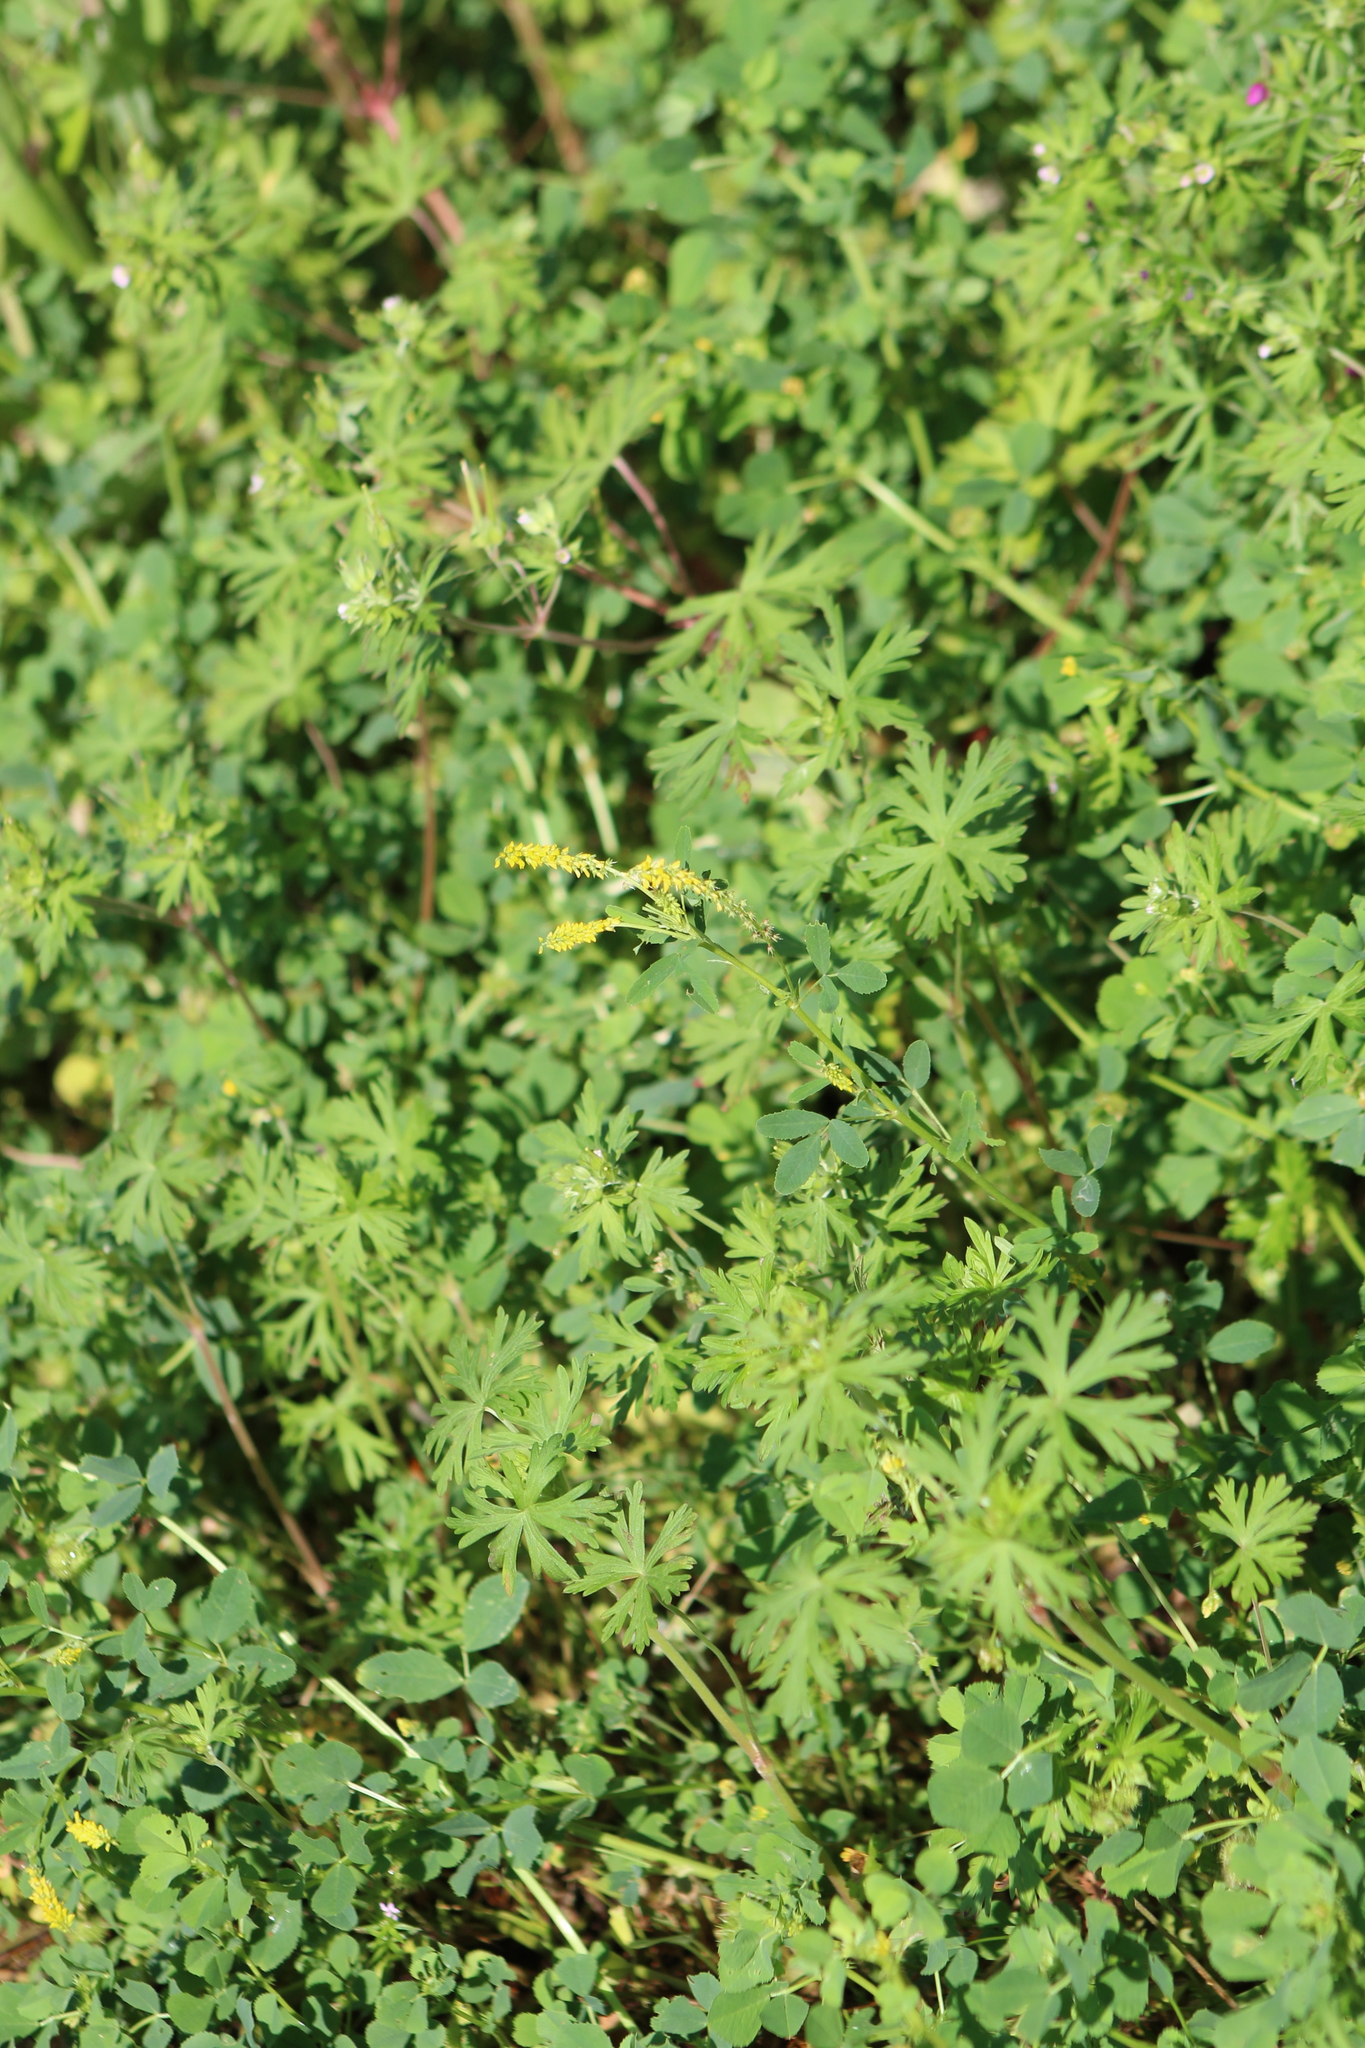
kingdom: Plantae
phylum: Tracheophyta
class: Magnoliopsida
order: Fabales
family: Fabaceae
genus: Melilotus
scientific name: Melilotus indicus
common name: Small melilot
